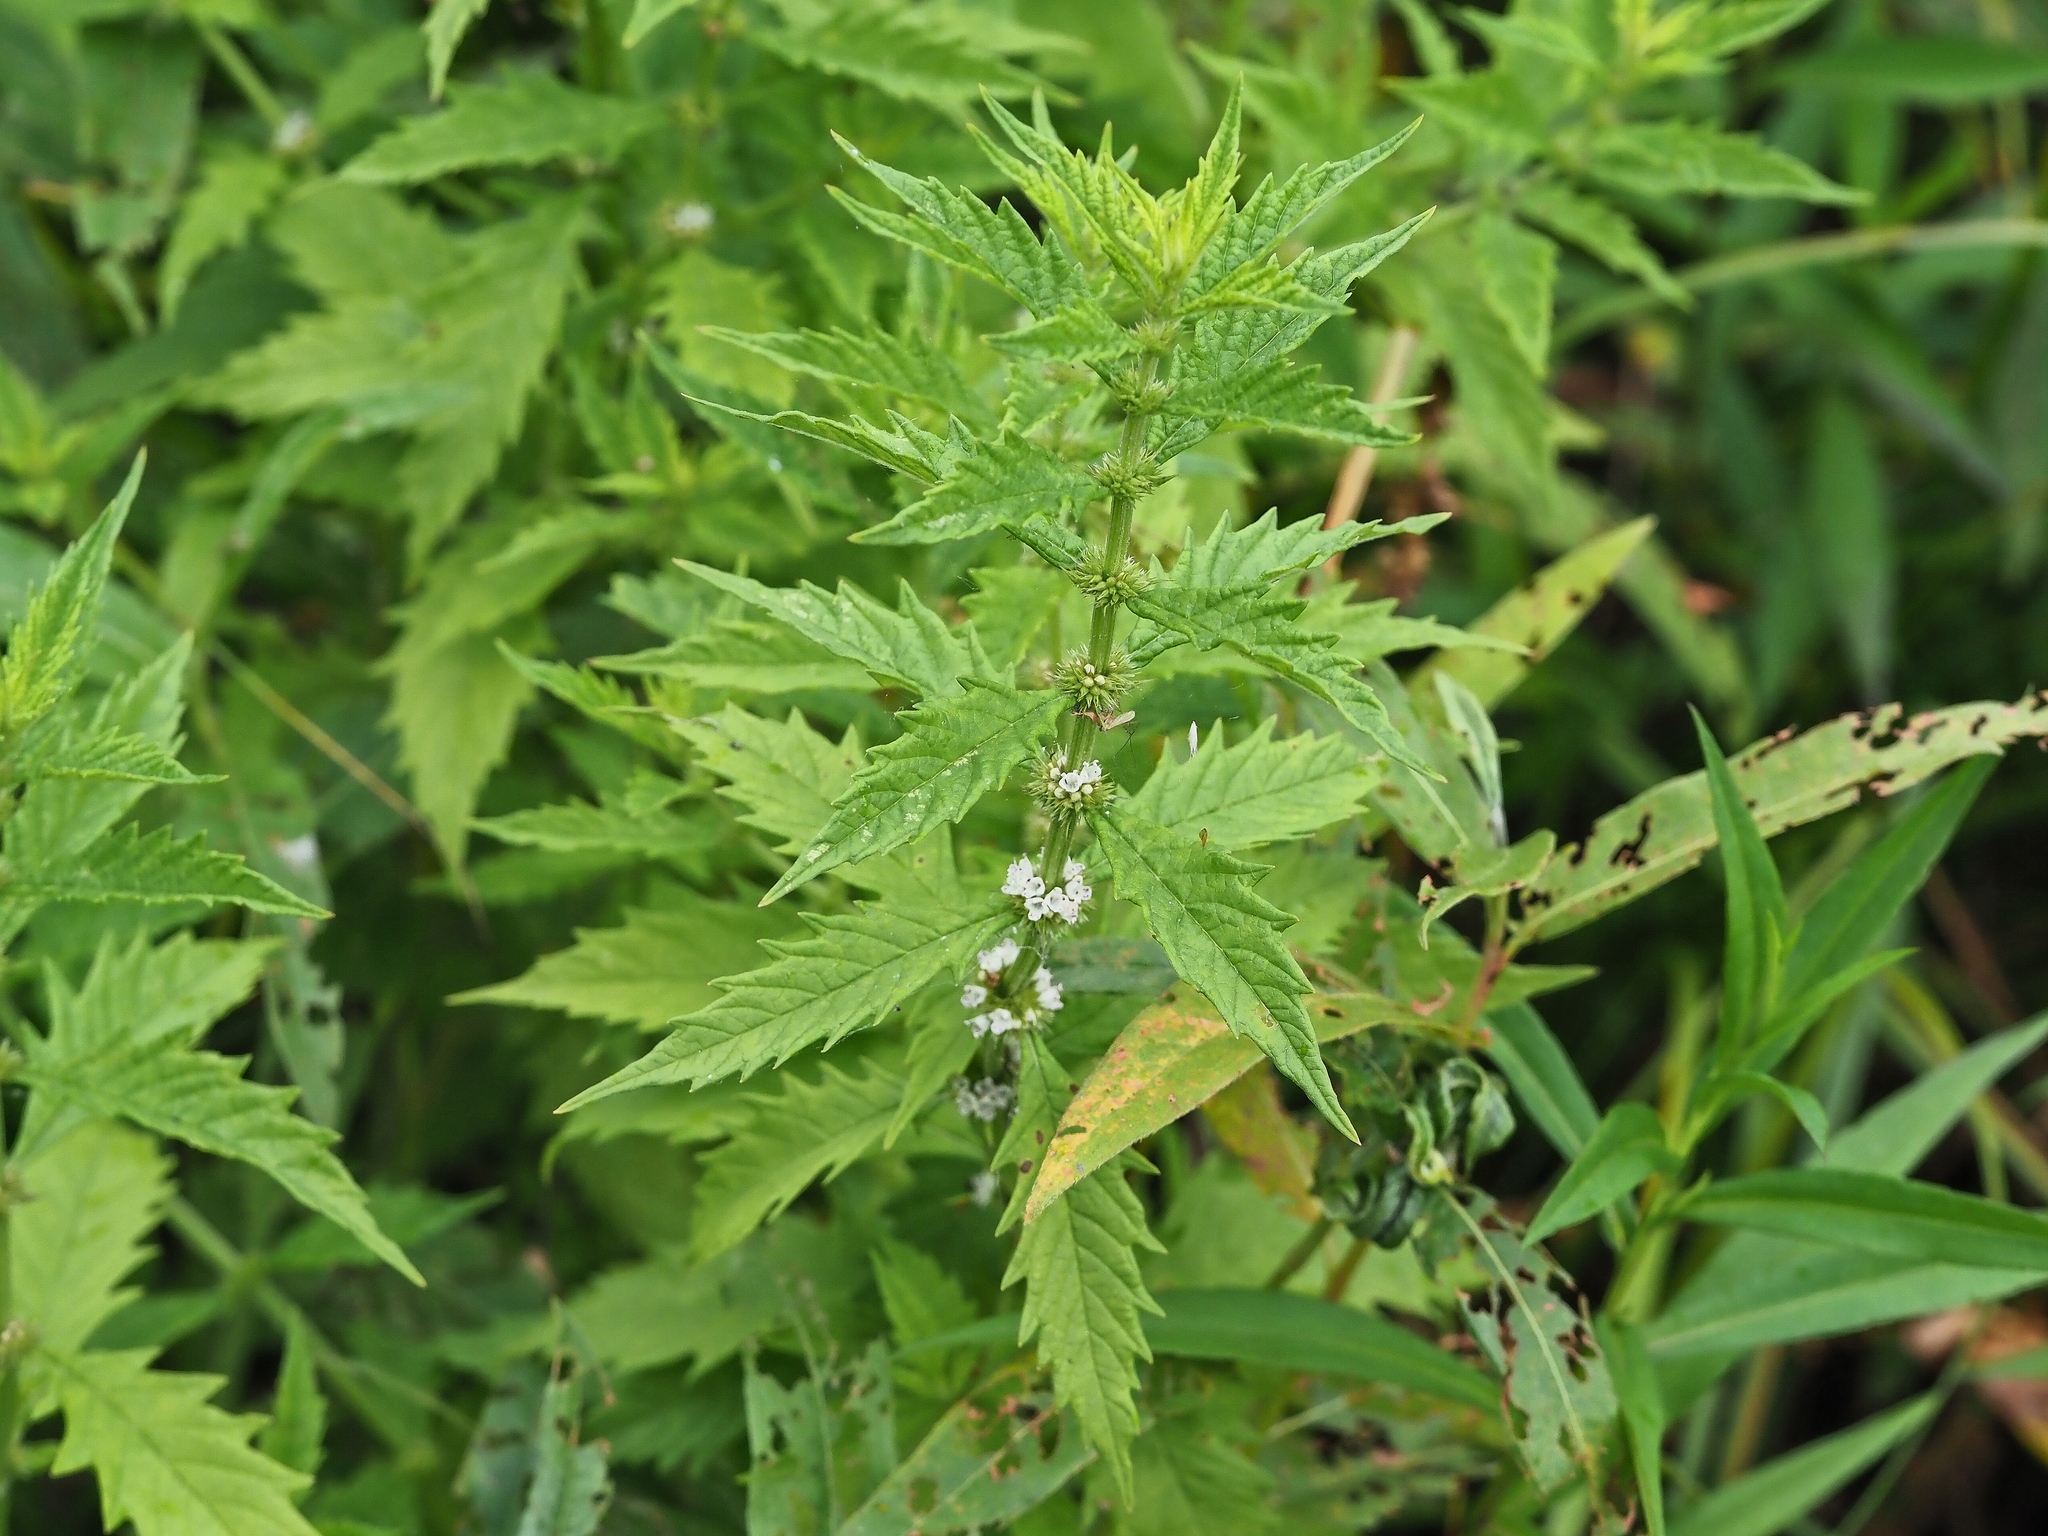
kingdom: Plantae
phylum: Tracheophyta
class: Magnoliopsida
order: Lamiales
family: Lamiaceae
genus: Lycopus
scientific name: Lycopus europaeus
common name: European bugleweed
